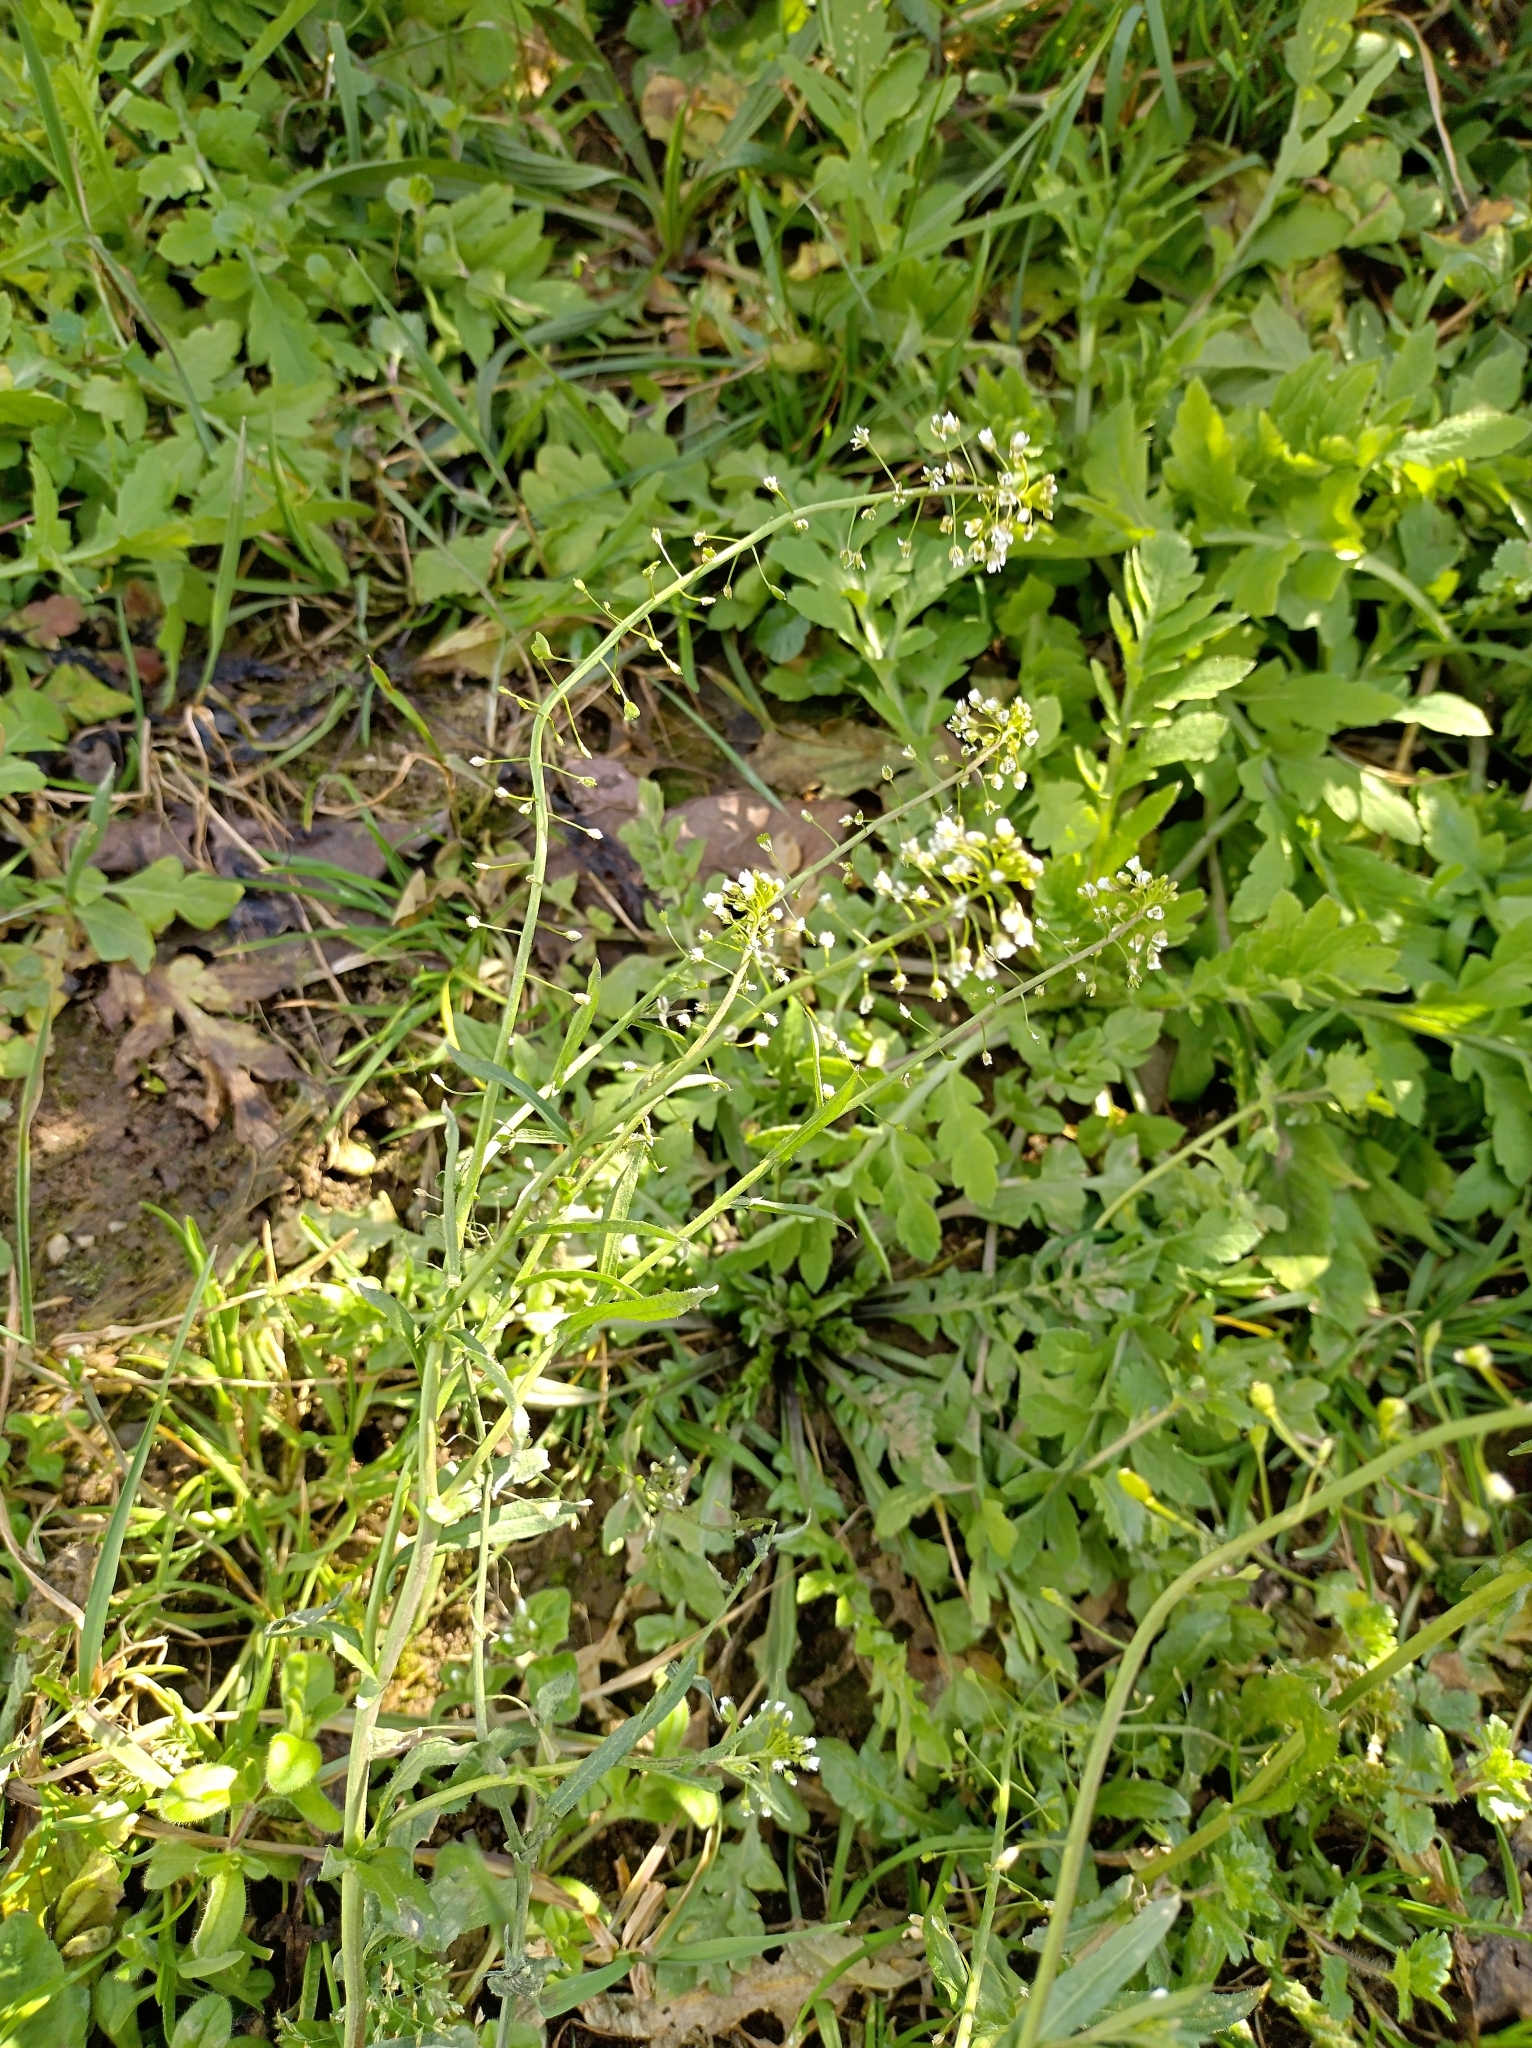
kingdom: Plantae
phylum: Tracheophyta
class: Magnoliopsida
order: Brassicales
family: Brassicaceae
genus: Capsella
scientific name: Capsella bursa-pastoris
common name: Shepherd's purse
